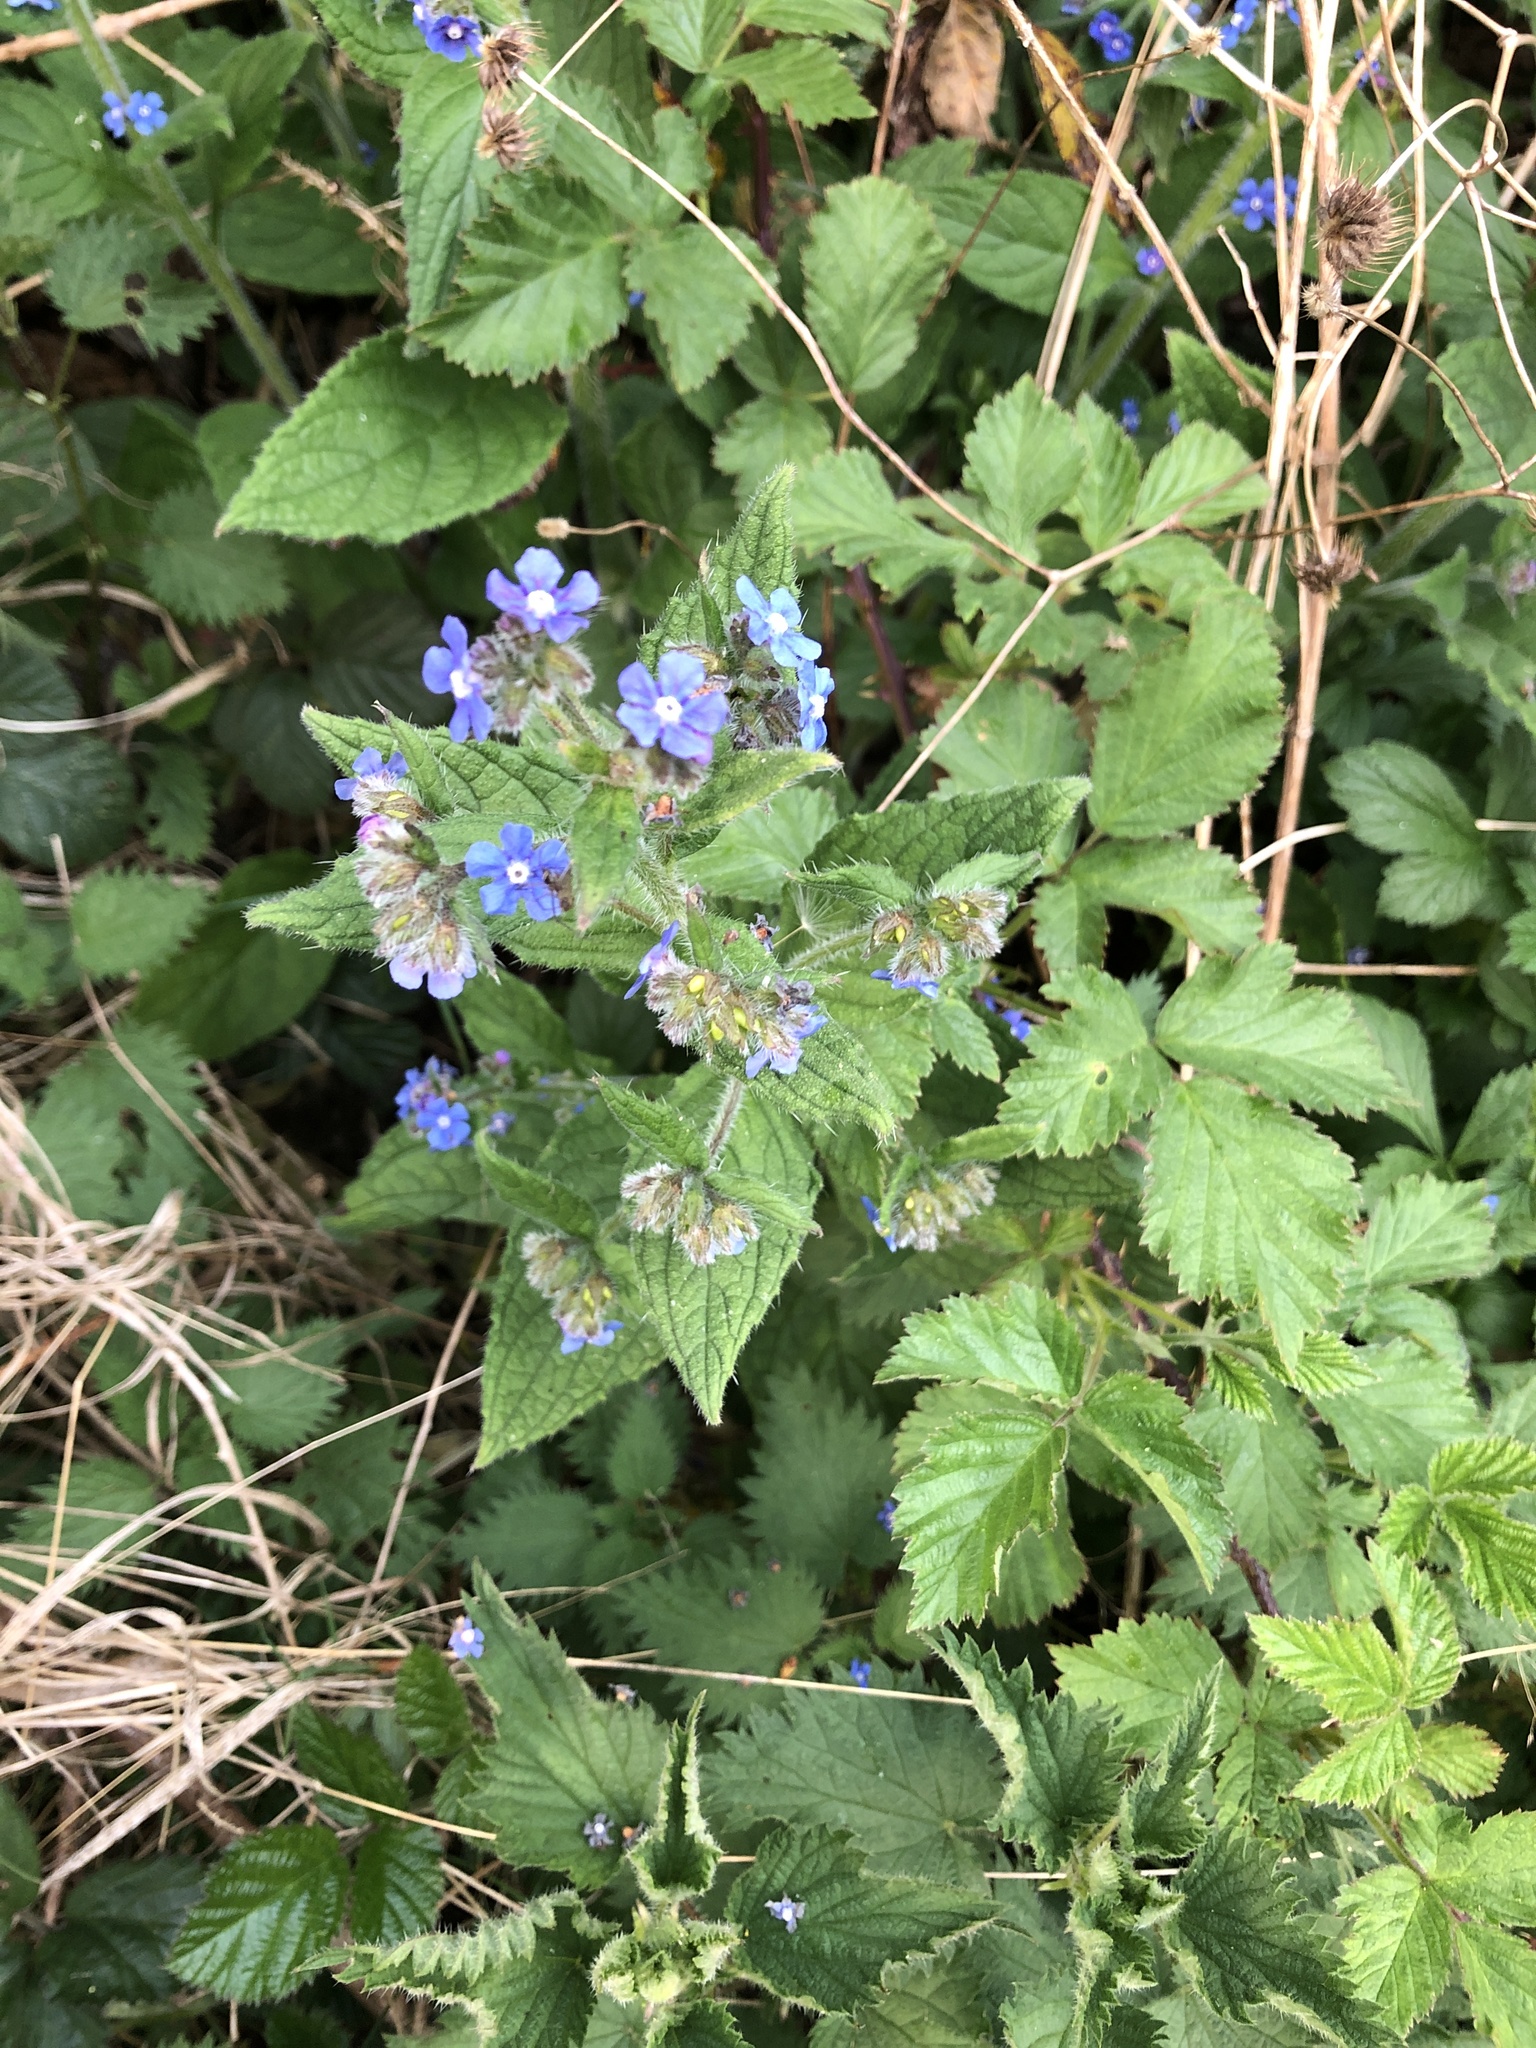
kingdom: Plantae
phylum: Tracheophyta
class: Magnoliopsida
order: Boraginales
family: Boraginaceae
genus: Pentaglottis
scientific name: Pentaglottis sempervirens
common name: Green alkanet
